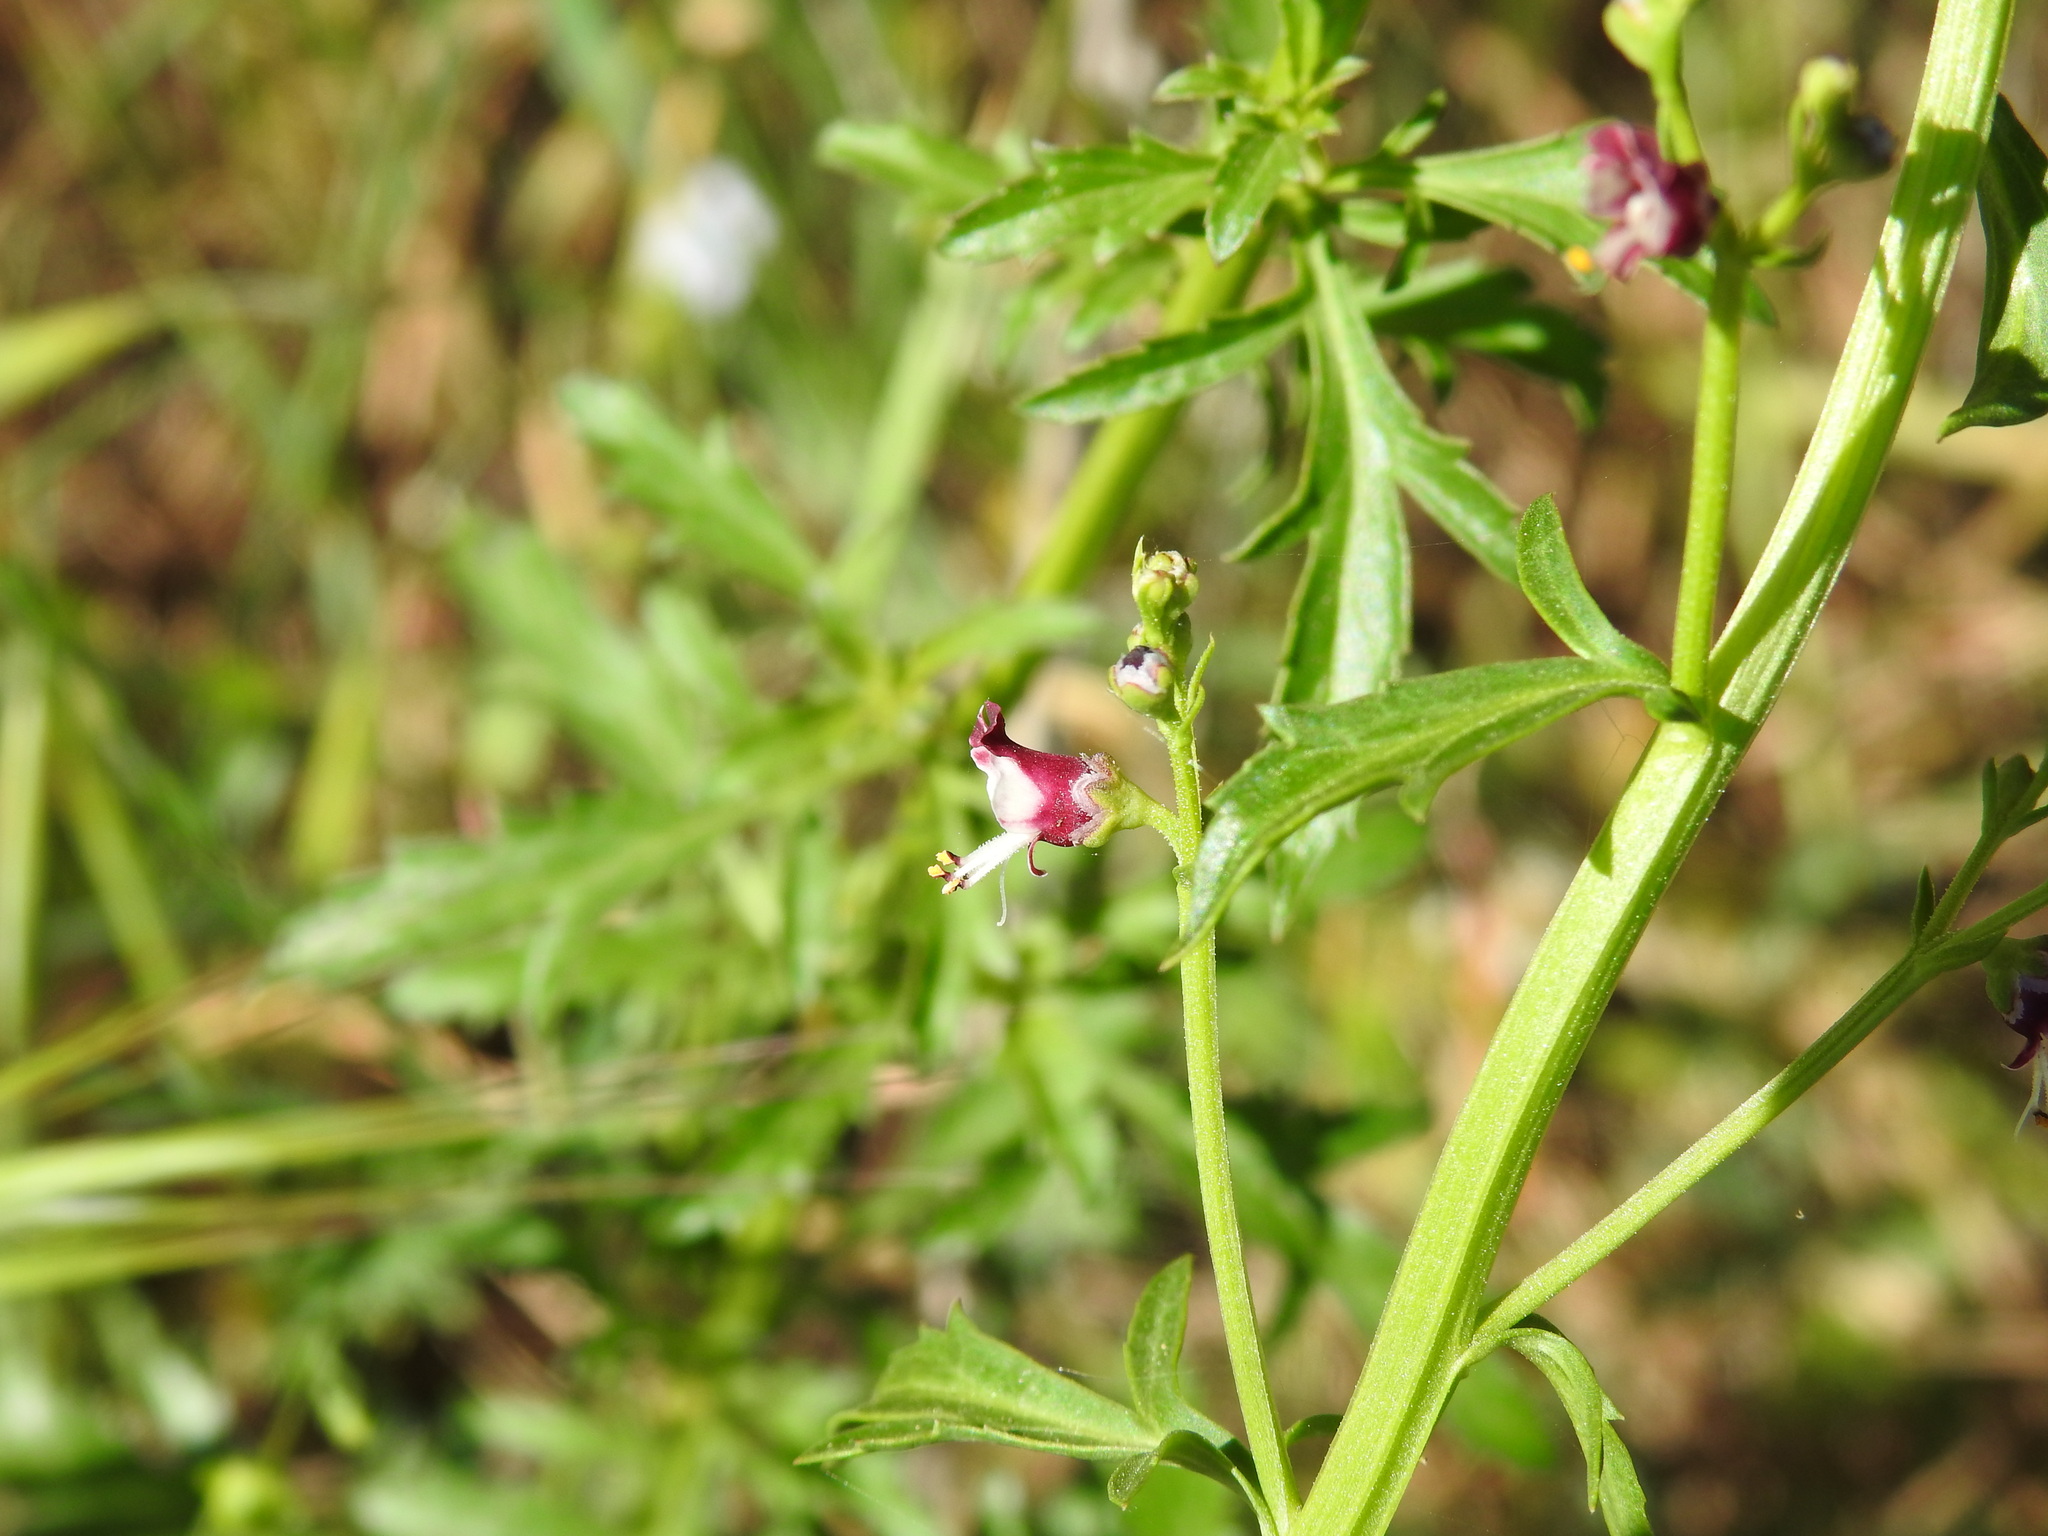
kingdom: Plantae
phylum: Tracheophyta
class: Magnoliopsida
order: Lamiales
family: Scrophulariaceae
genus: Scrophularia
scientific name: Scrophularia canina
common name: French figwort
